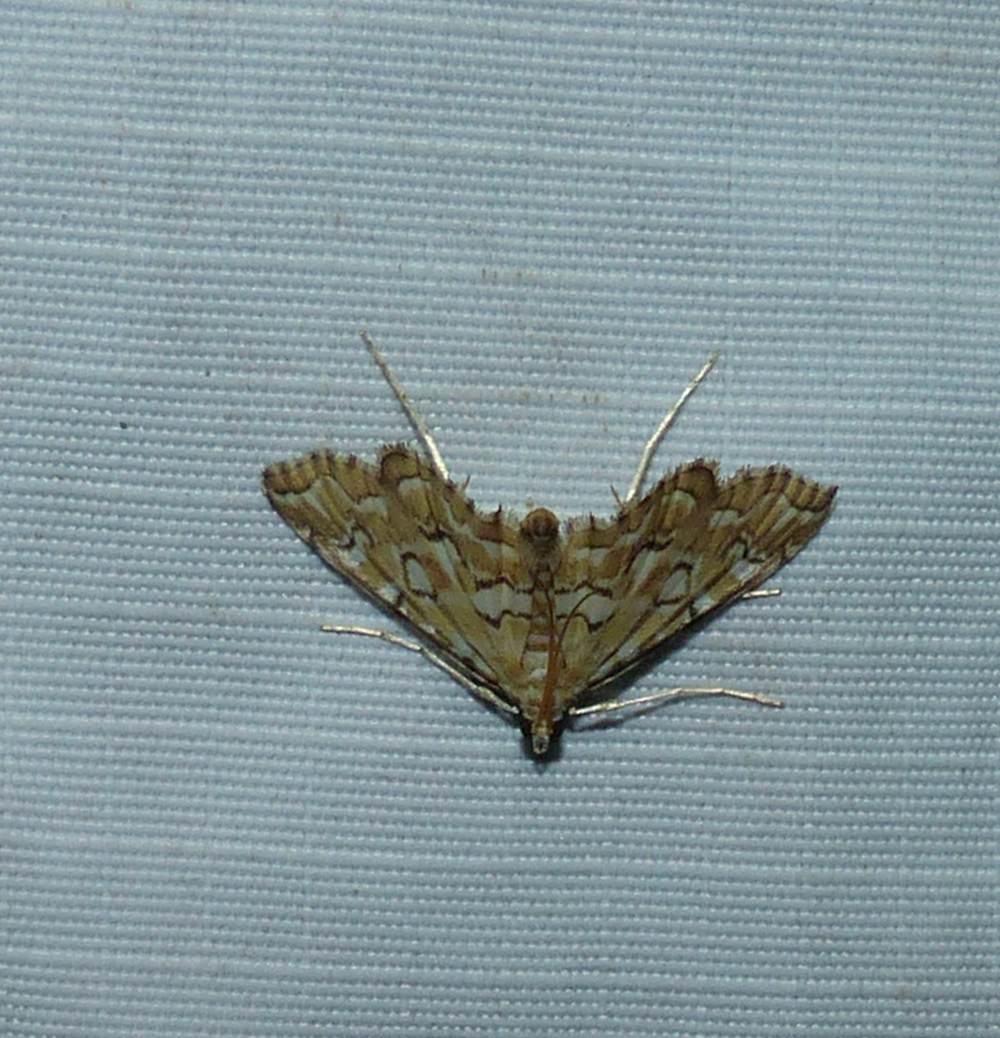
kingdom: Animalia
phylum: Arthropoda
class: Insecta
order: Lepidoptera
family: Crambidae
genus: Elophila
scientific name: Elophila icciusalis
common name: Pondside pyralid moth
